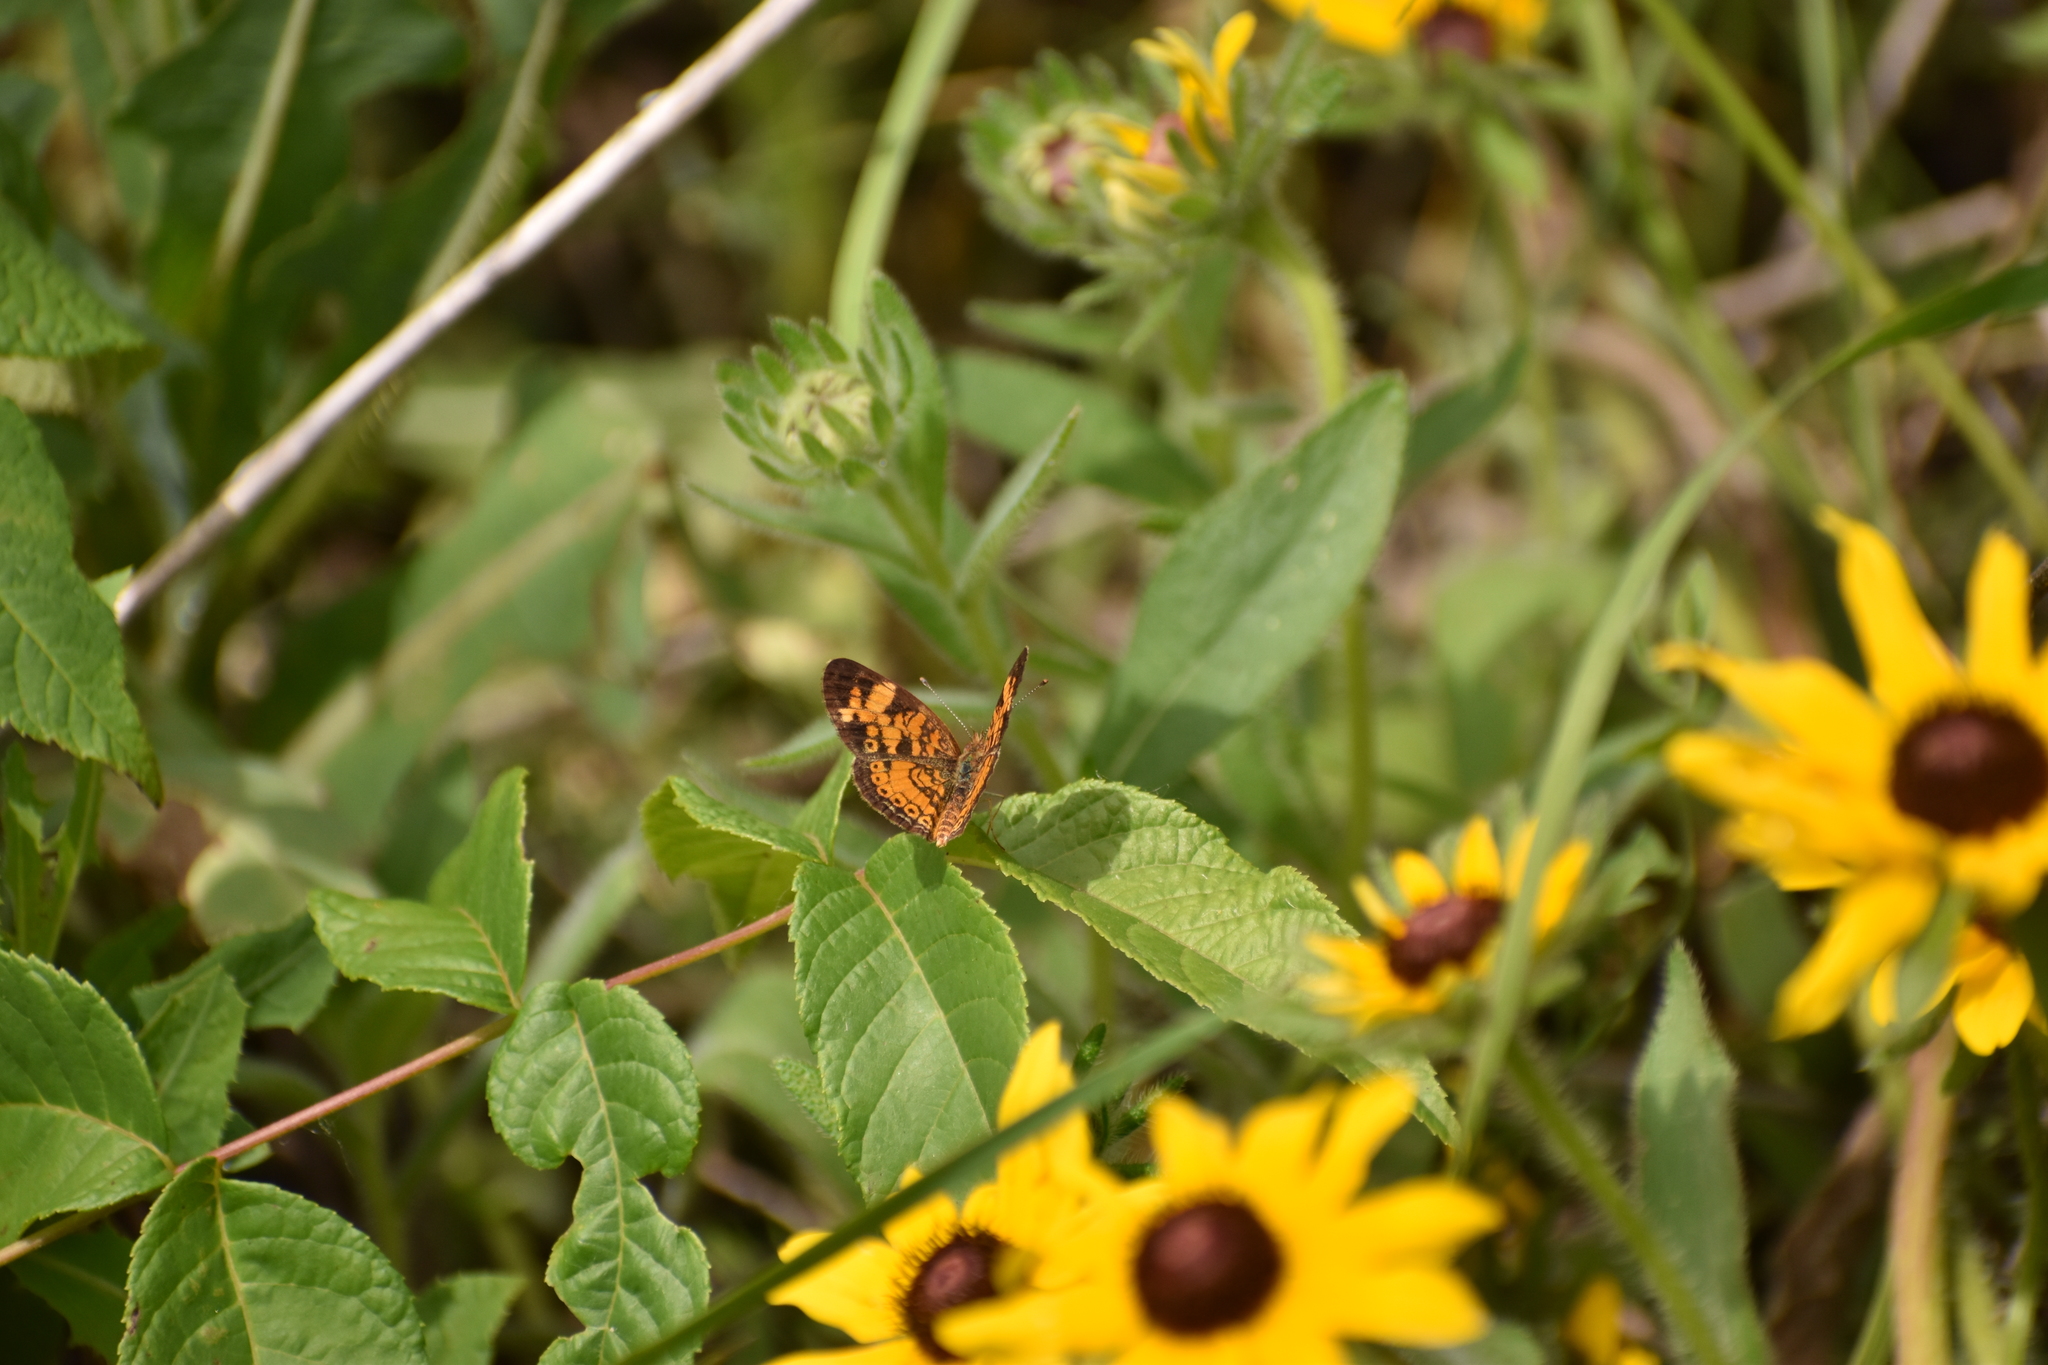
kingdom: Animalia
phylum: Arthropoda
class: Insecta
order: Lepidoptera
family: Nymphalidae
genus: Phyciodes
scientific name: Phyciodes tharos
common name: Pearl crescent
